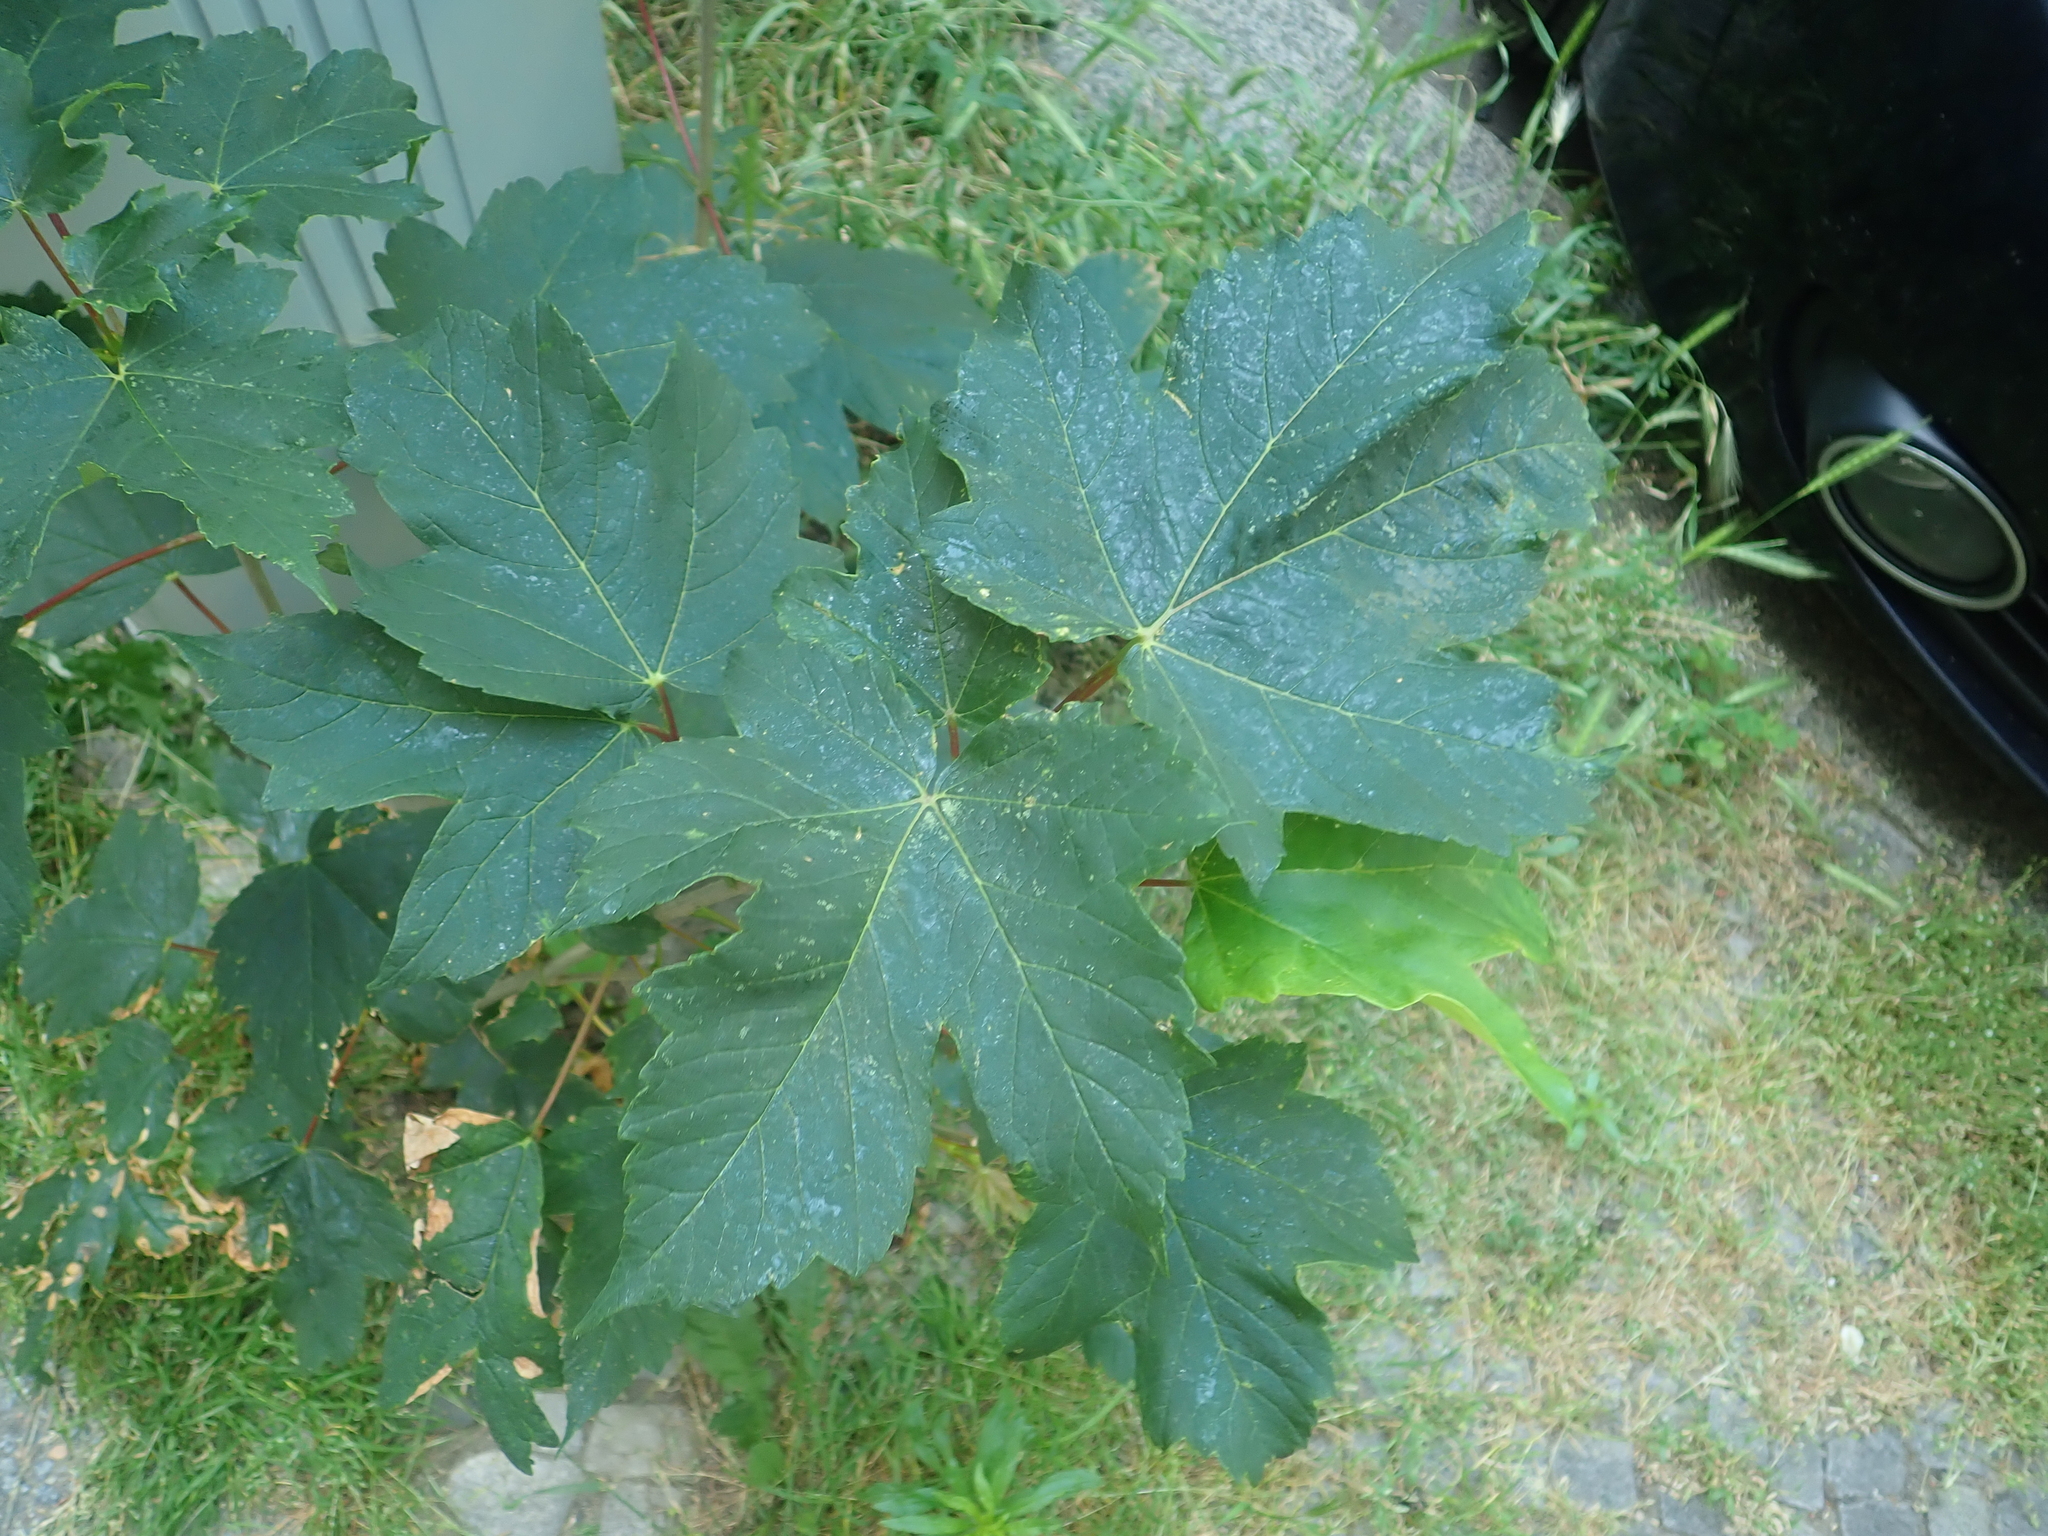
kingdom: Plantae
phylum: Tracheophyta
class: Magnoliopsida
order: Sapindales
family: Sapindaceae
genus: Acer
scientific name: Acer pseudoplatanus
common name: Sycamore
